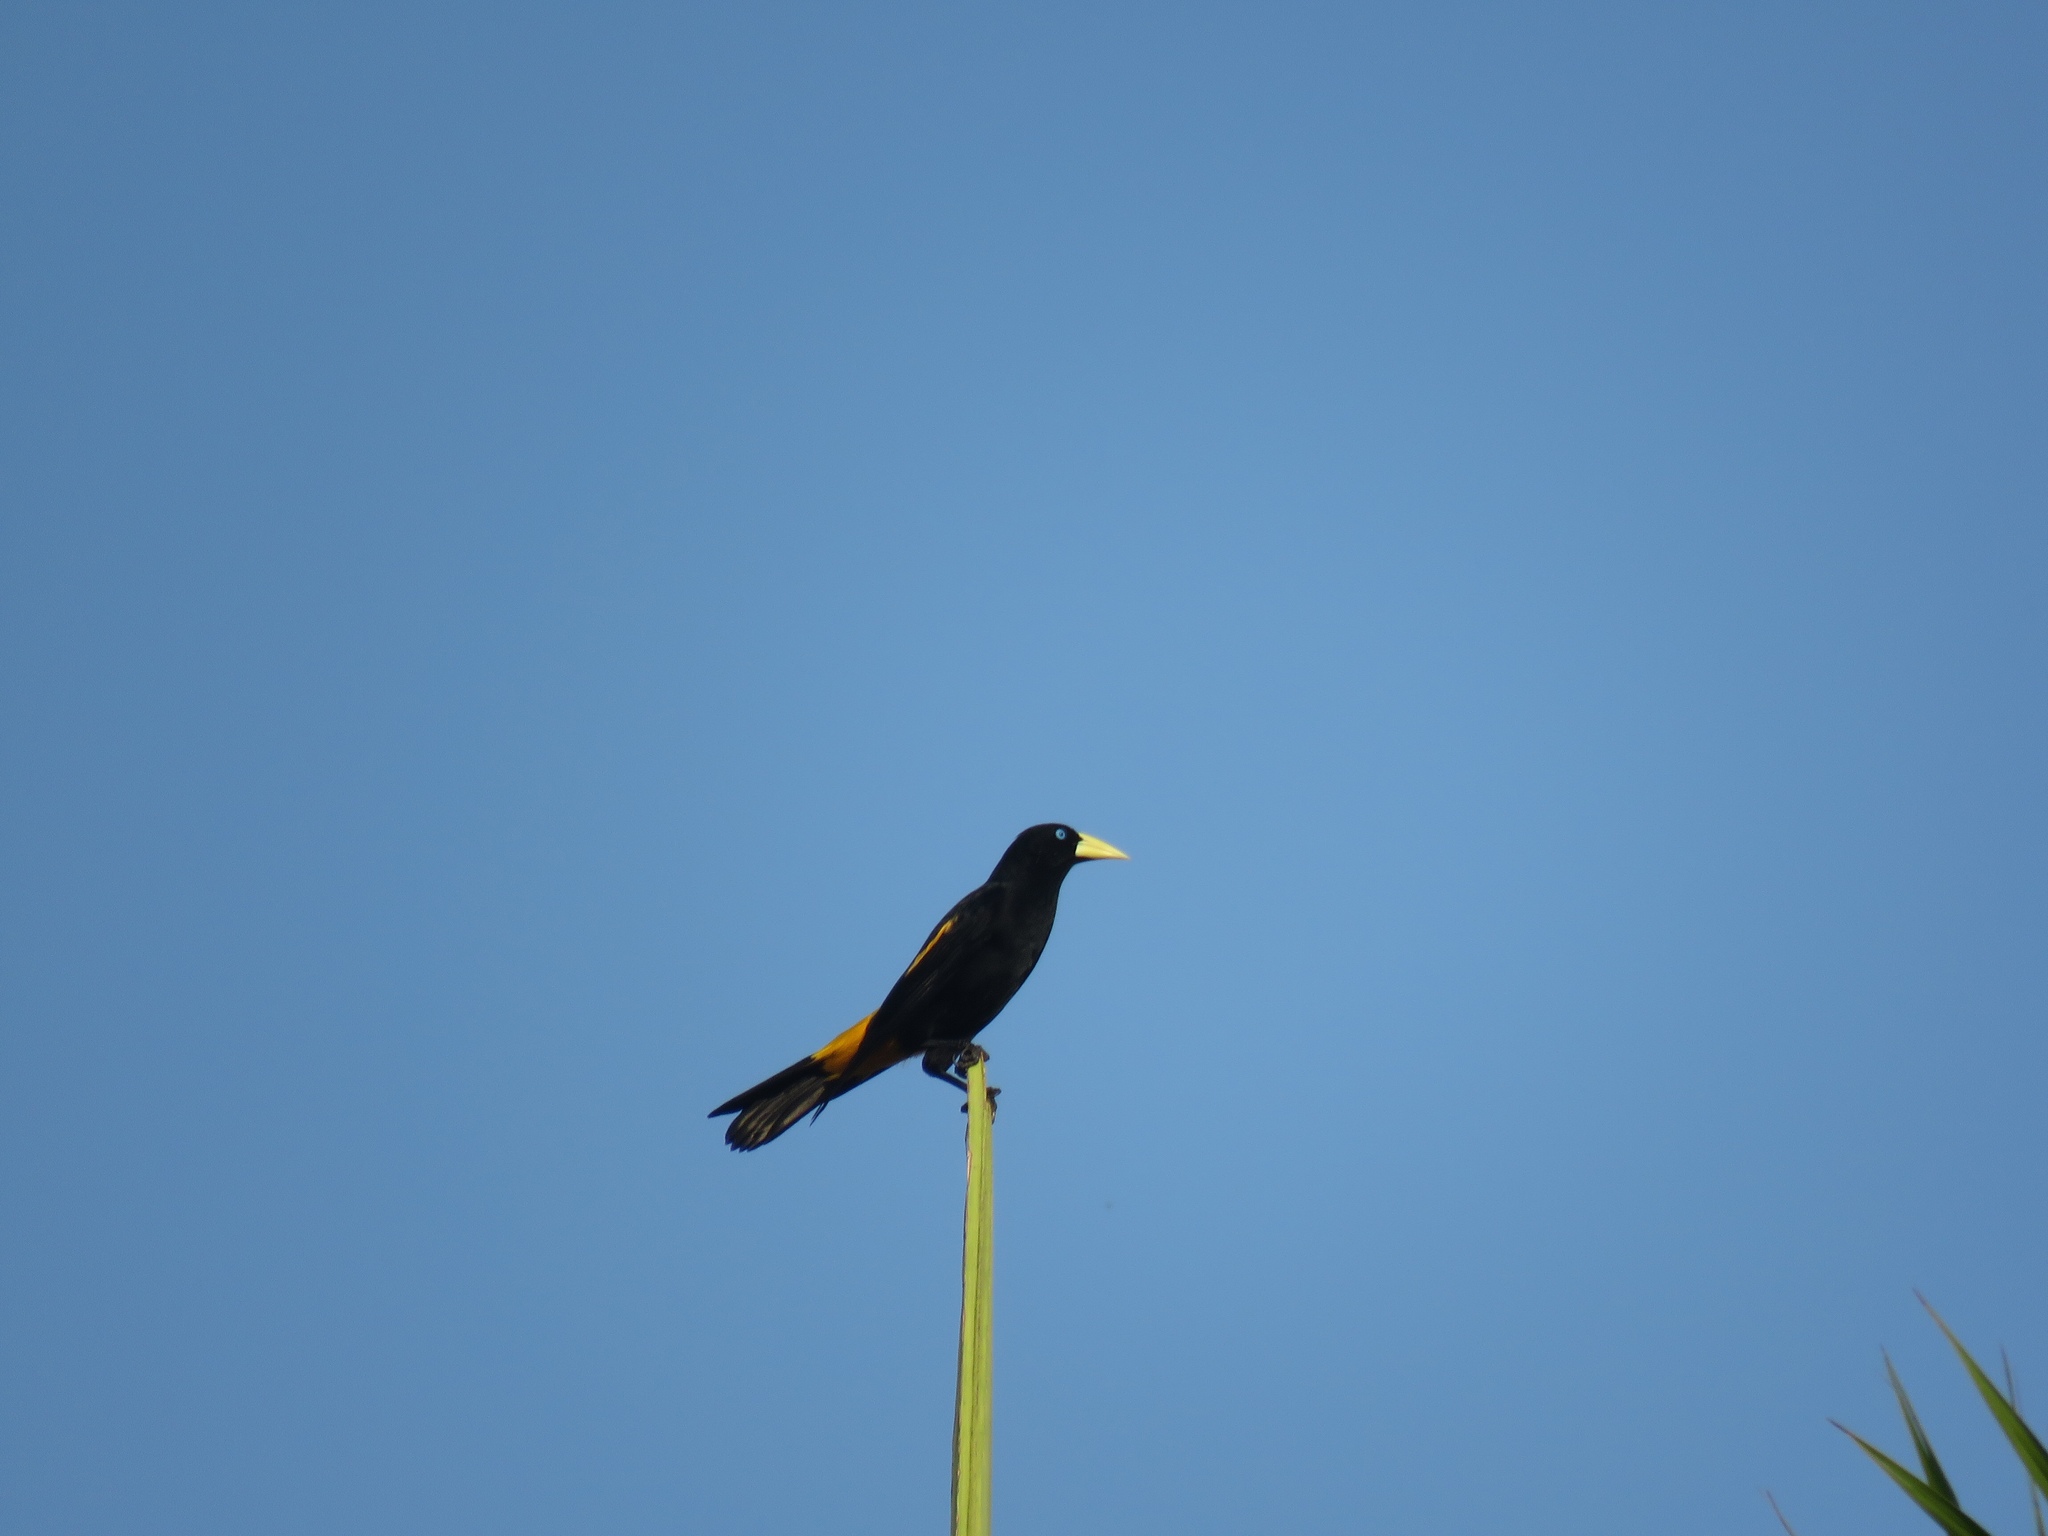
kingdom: Animalia
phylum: Chordata
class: Aves
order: Passeriformes
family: Icteridae
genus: Cacicus
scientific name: Cacicus cela
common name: Yellow-rumped cacique
